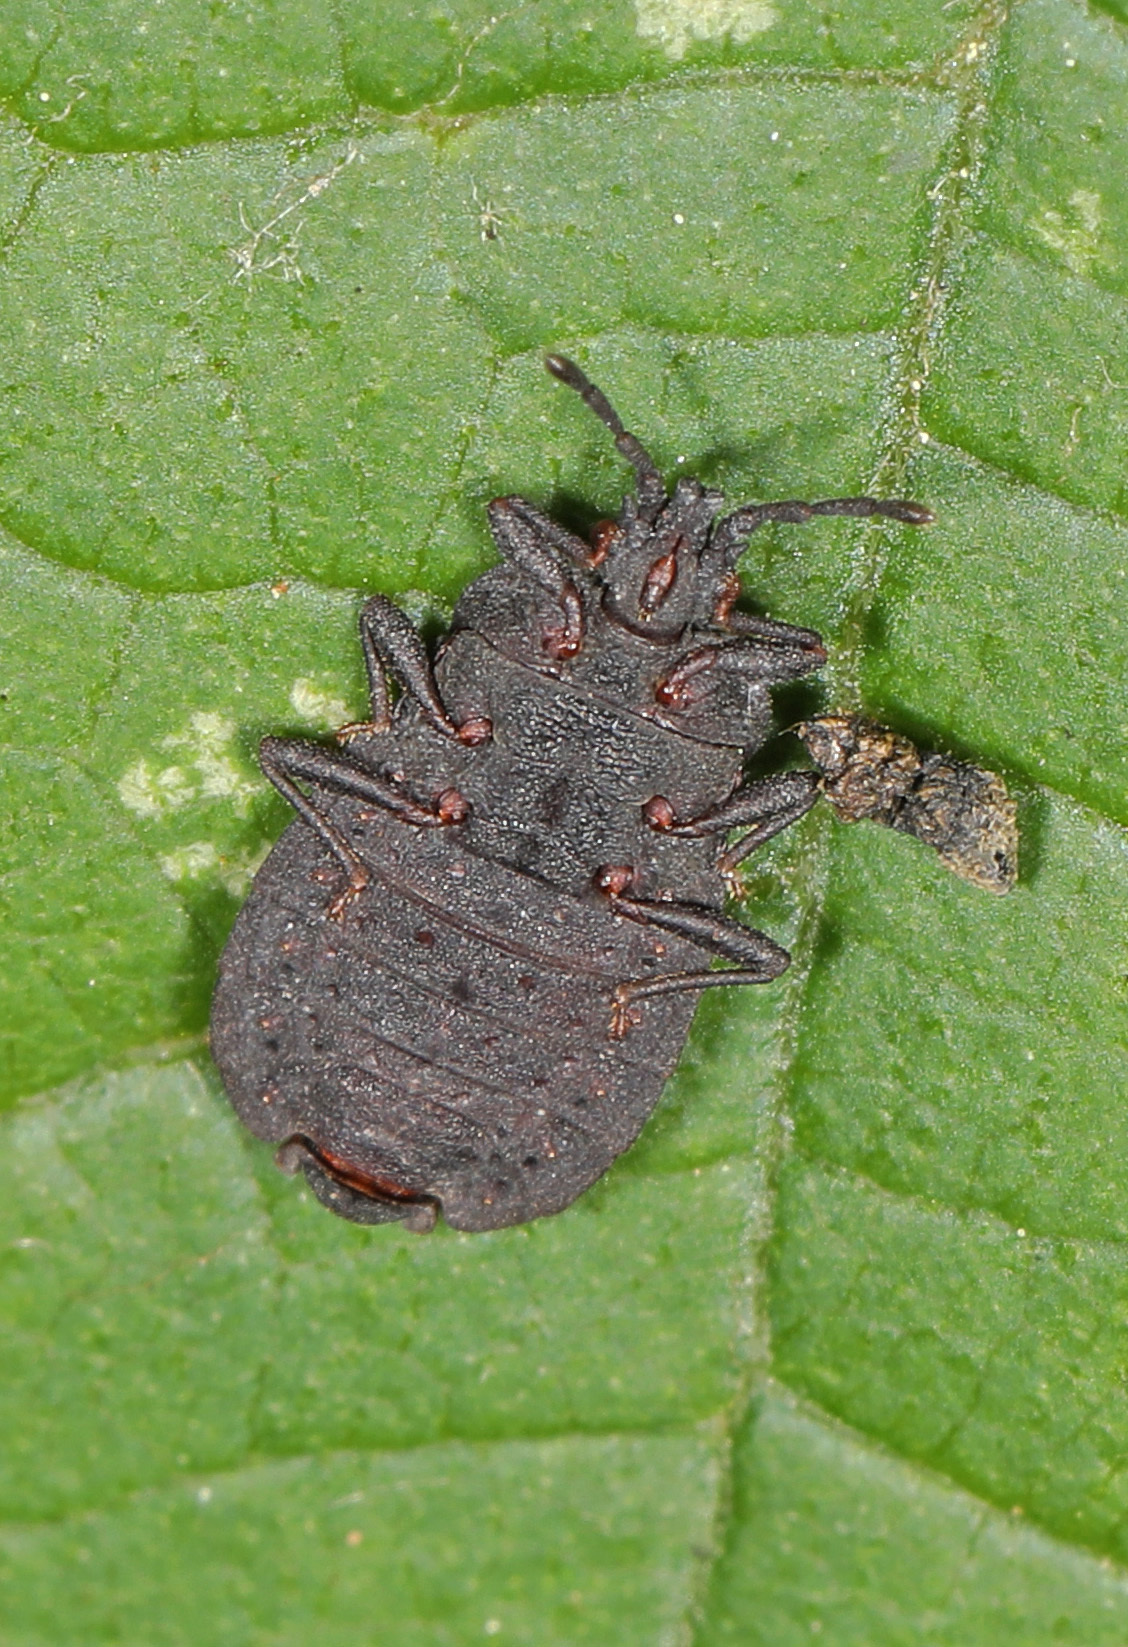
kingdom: Animalia
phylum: Arthropoda
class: Insecta
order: Hemiptera
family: Aradidae
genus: Neuroctenus
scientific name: Neuroctenus pseudonymus
